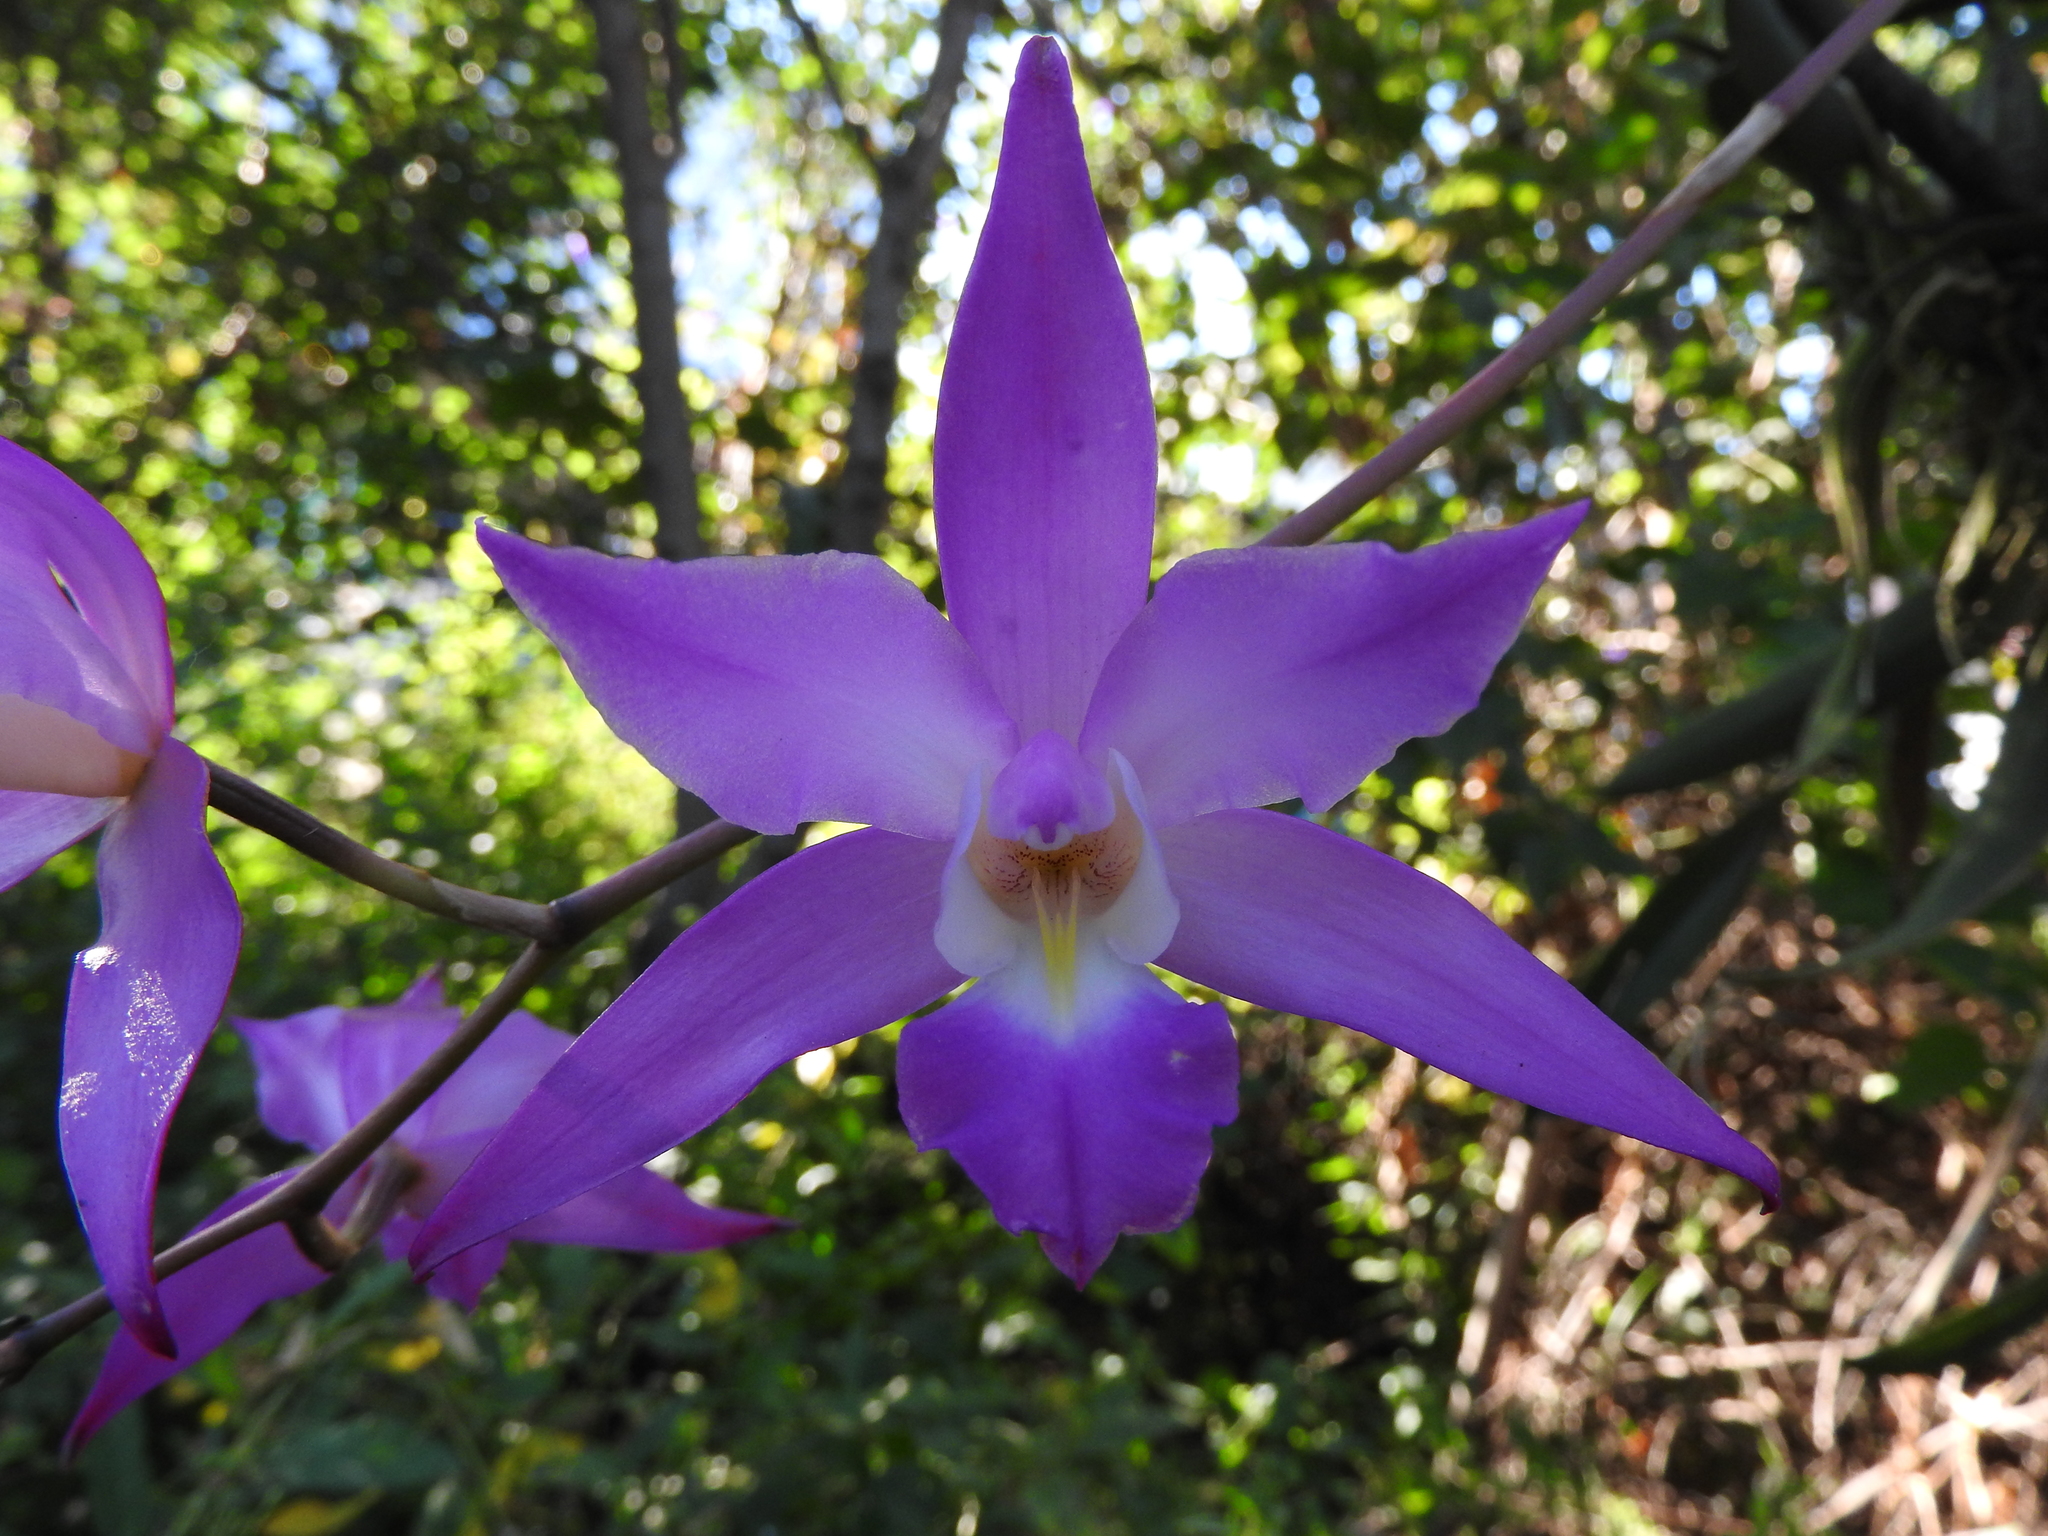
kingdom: Plantae
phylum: Tracheophyta
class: Liliopsida
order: Asparagales
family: Orchidaceae
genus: Laelia
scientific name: Laelia autumnalis
